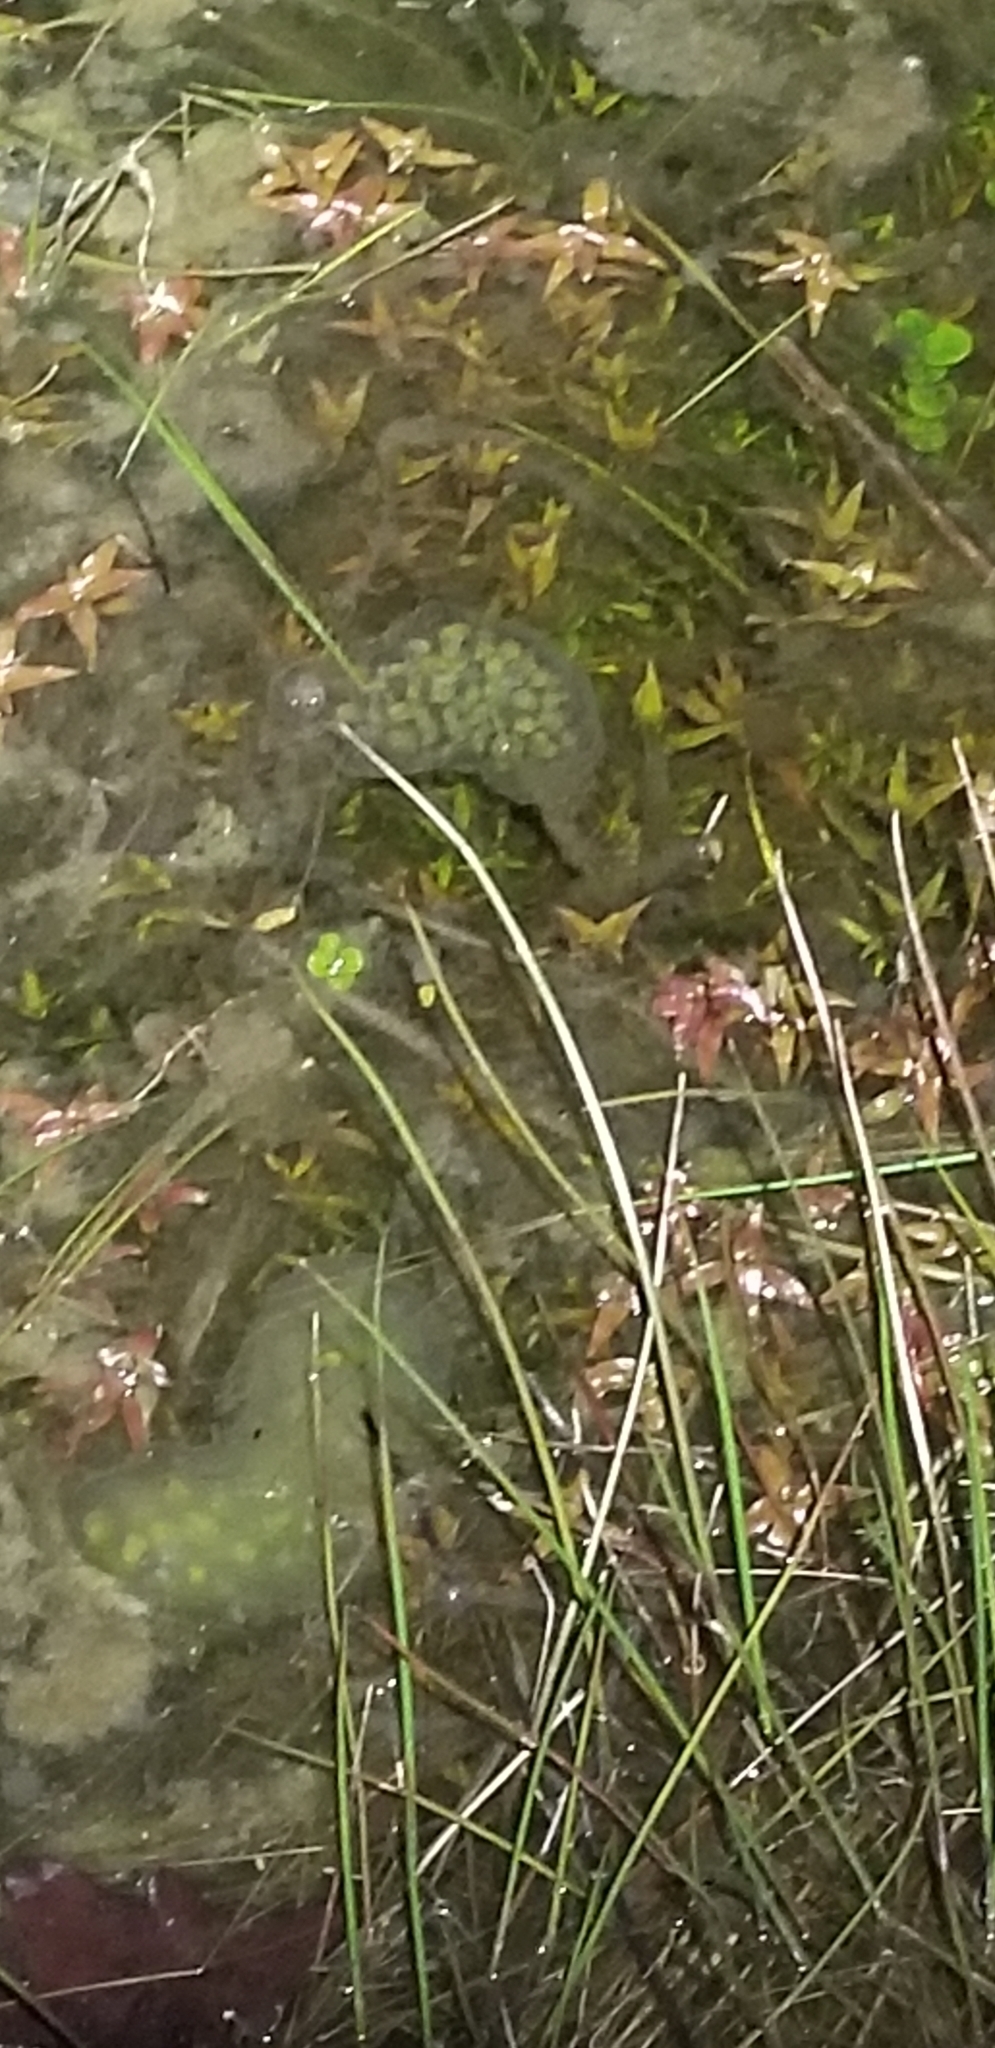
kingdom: Animalia
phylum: Chordata
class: Amphibia
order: Caudata
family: Ambystomatidae
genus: Ambystoma
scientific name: Ambystoma maculatum
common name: Spotted salamander
